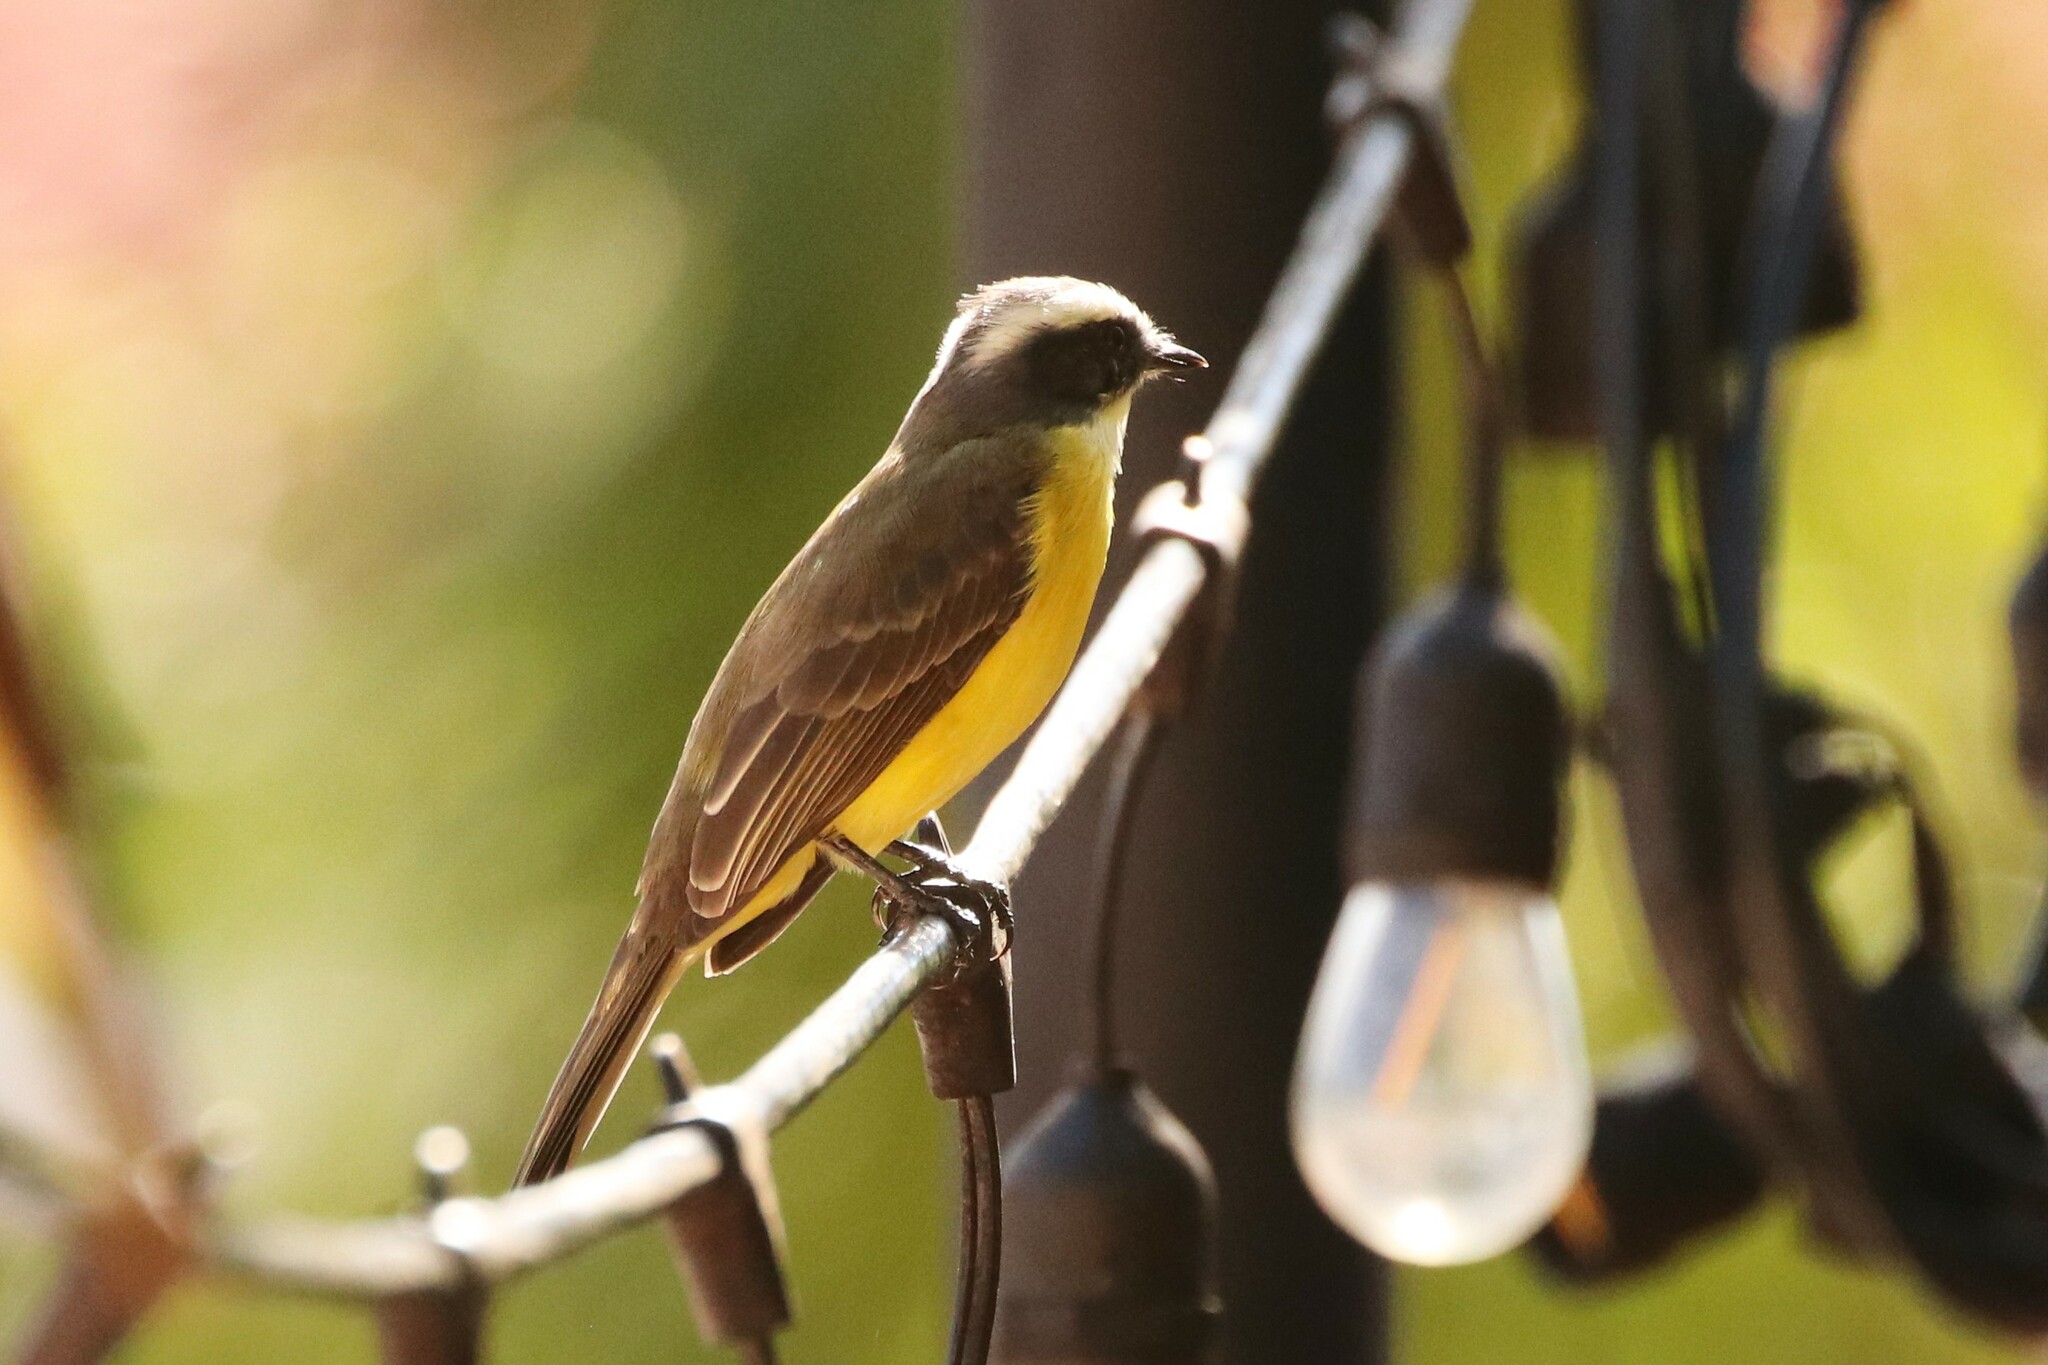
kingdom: Animalia
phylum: Chordata
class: Aves
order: Passeriformes
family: Tyrannidae
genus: Myiozetetes
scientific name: Myiozetetes similis
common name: Social flycatcher
